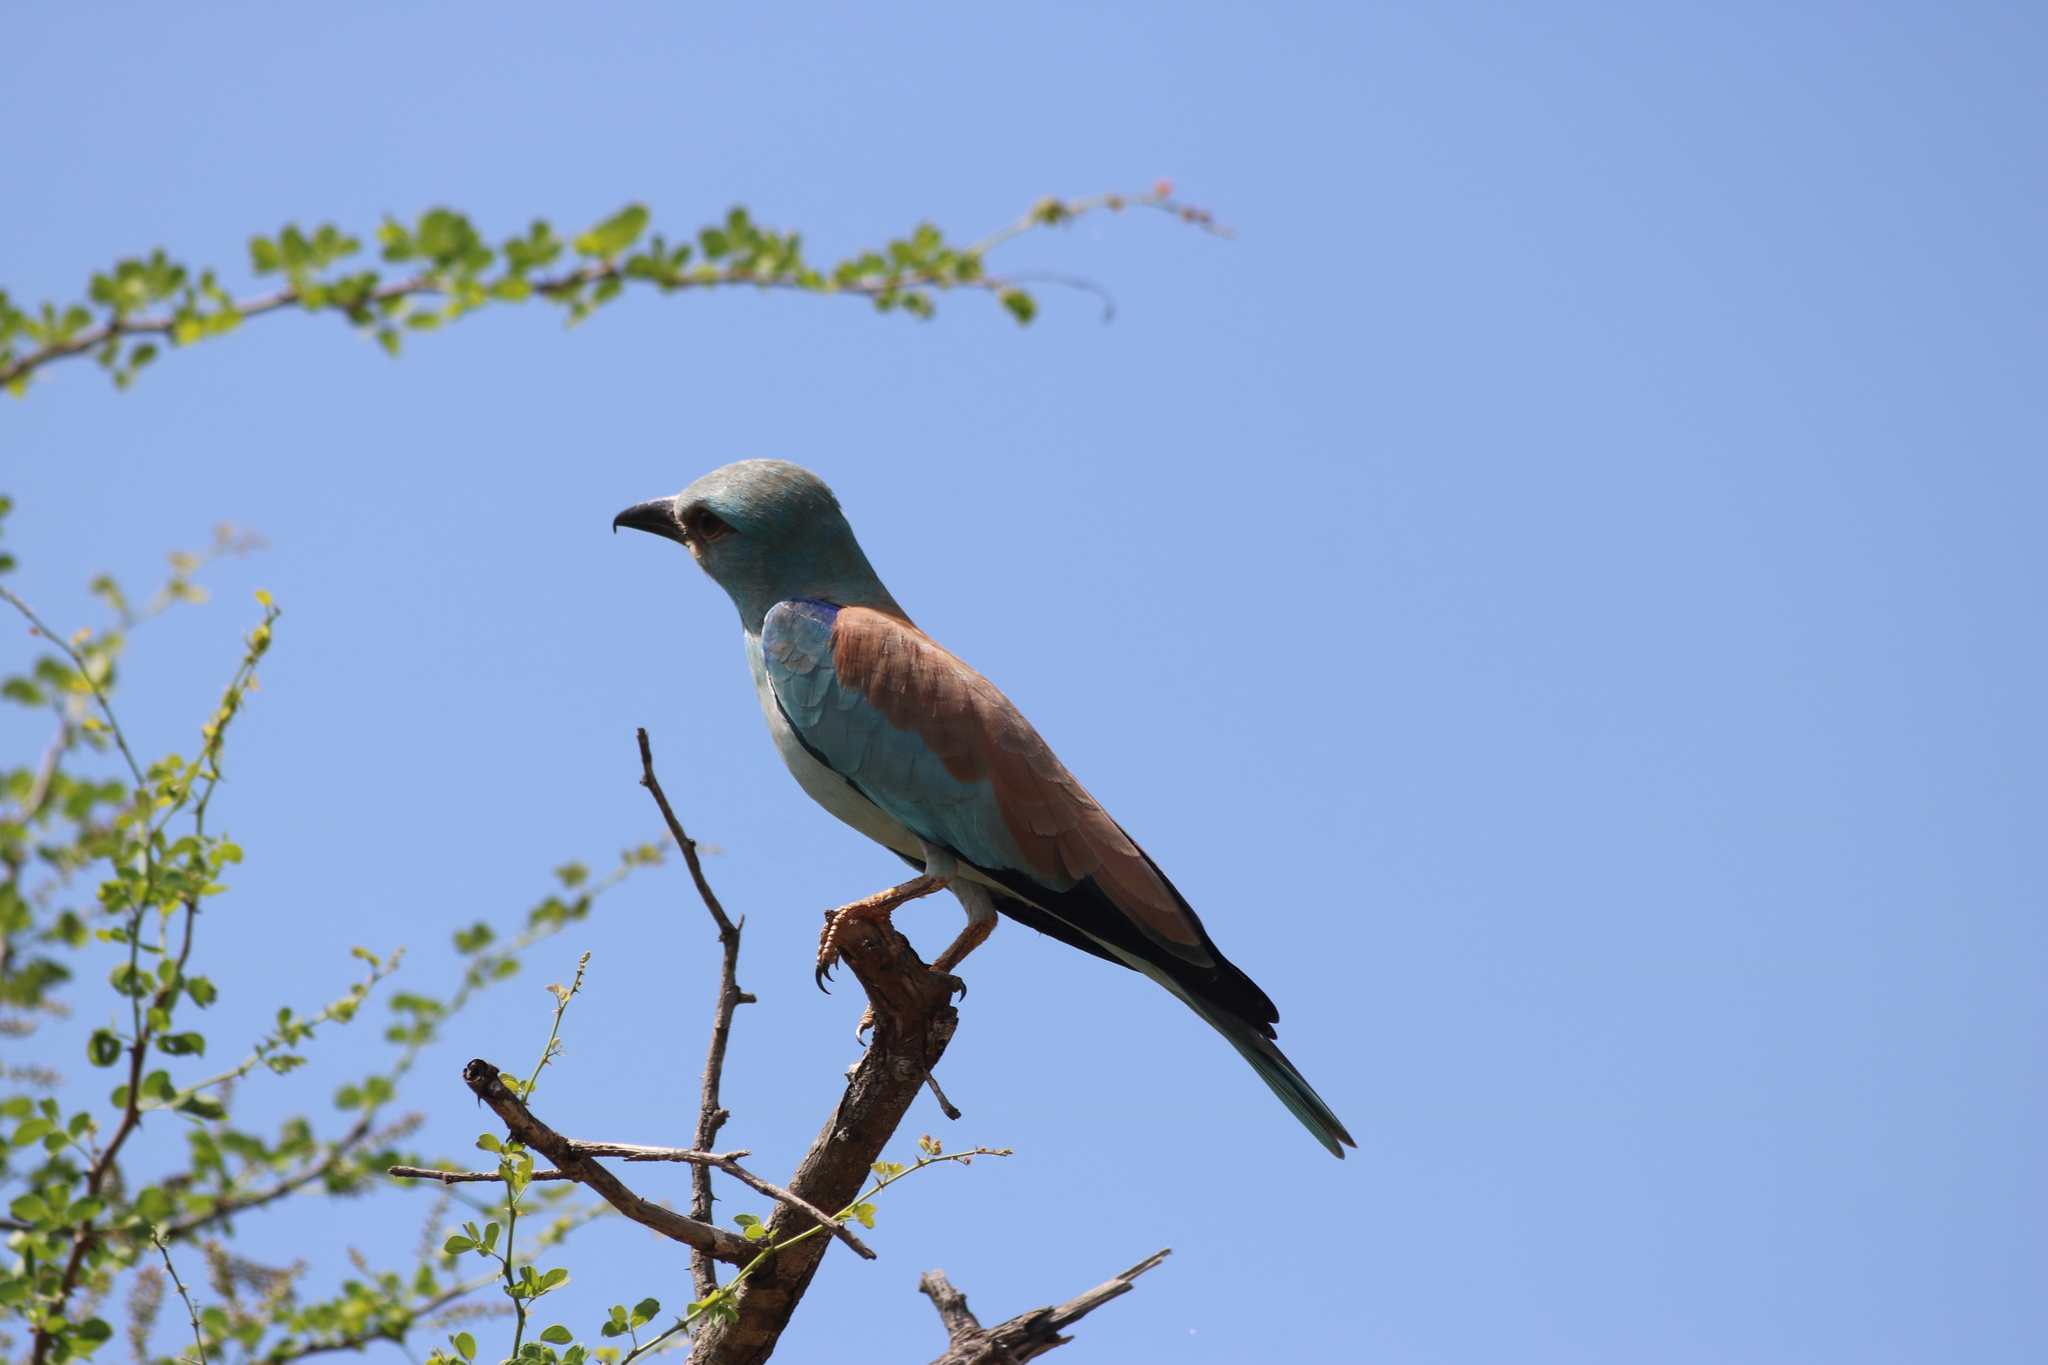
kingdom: Animalia
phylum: Chordata
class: Aves
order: Coraciiformes
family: Coraciidae
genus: Coracias
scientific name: Coracias garrulus
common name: European roller
